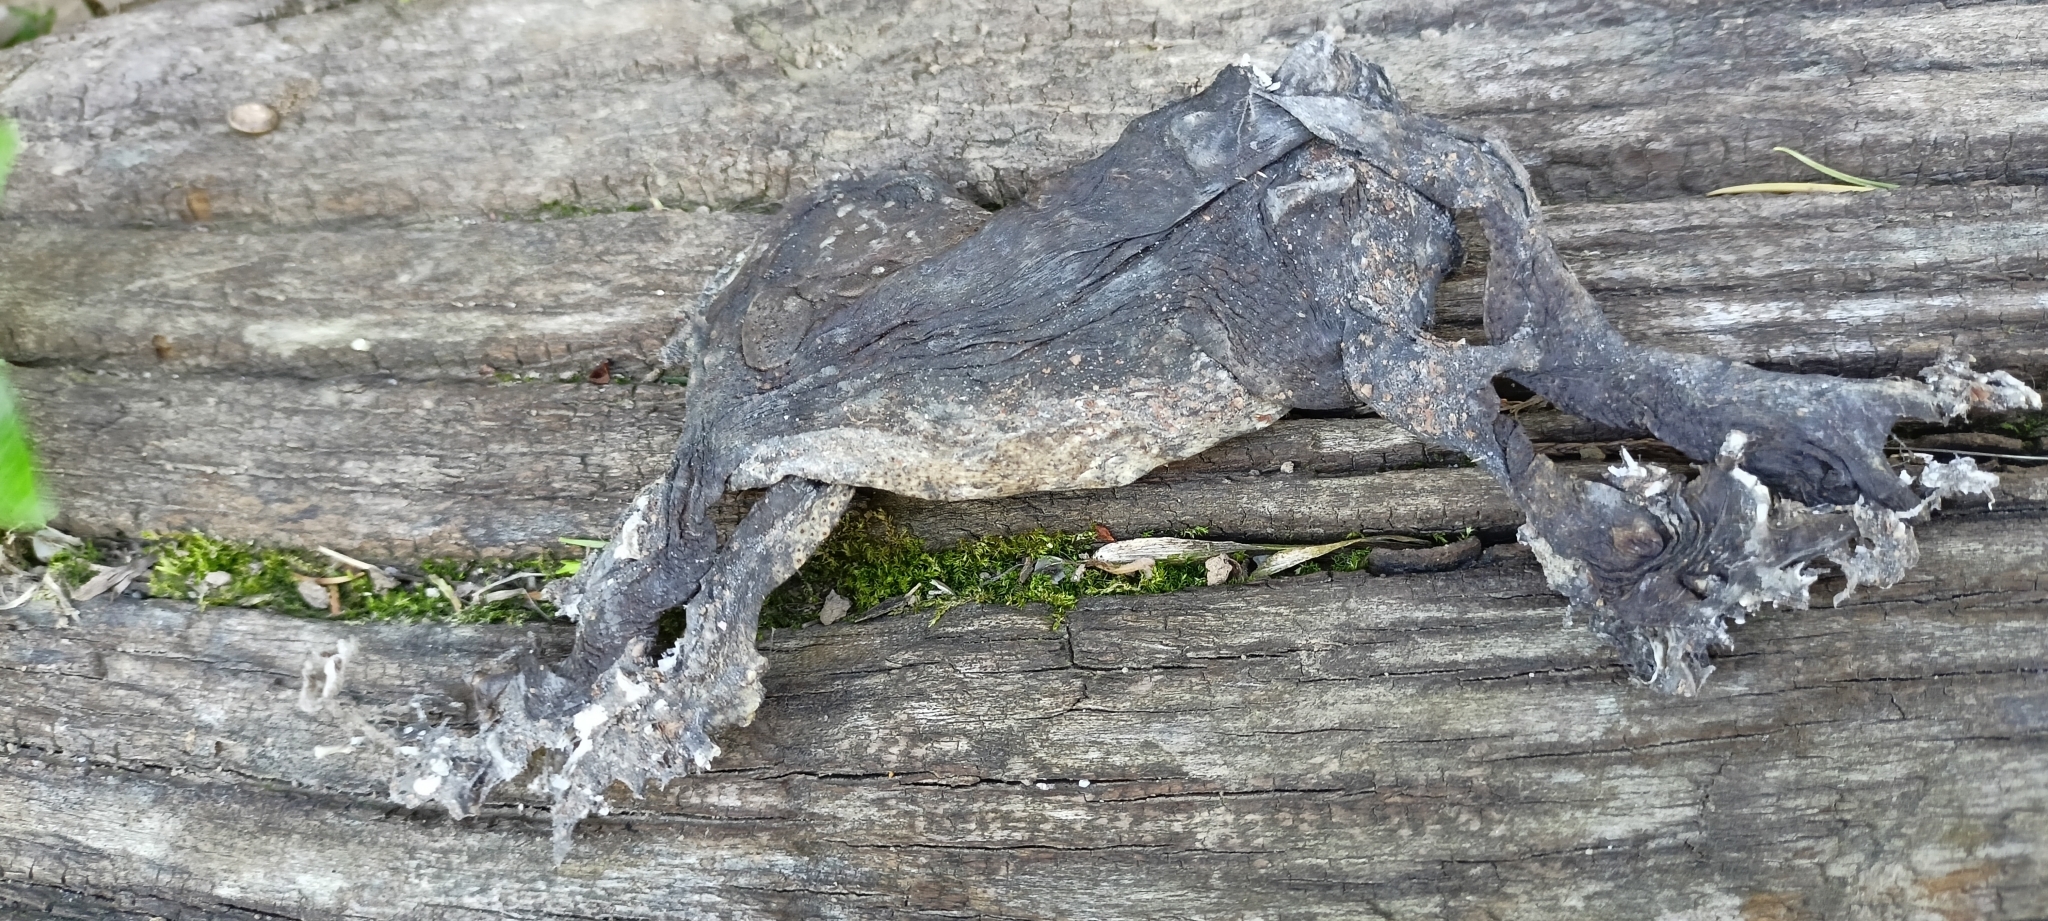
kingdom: Animalia
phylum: Chordata
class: Amphibia
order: Anura
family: Bufonidae
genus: Bufo
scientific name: Bufo bufo
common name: Common toad
